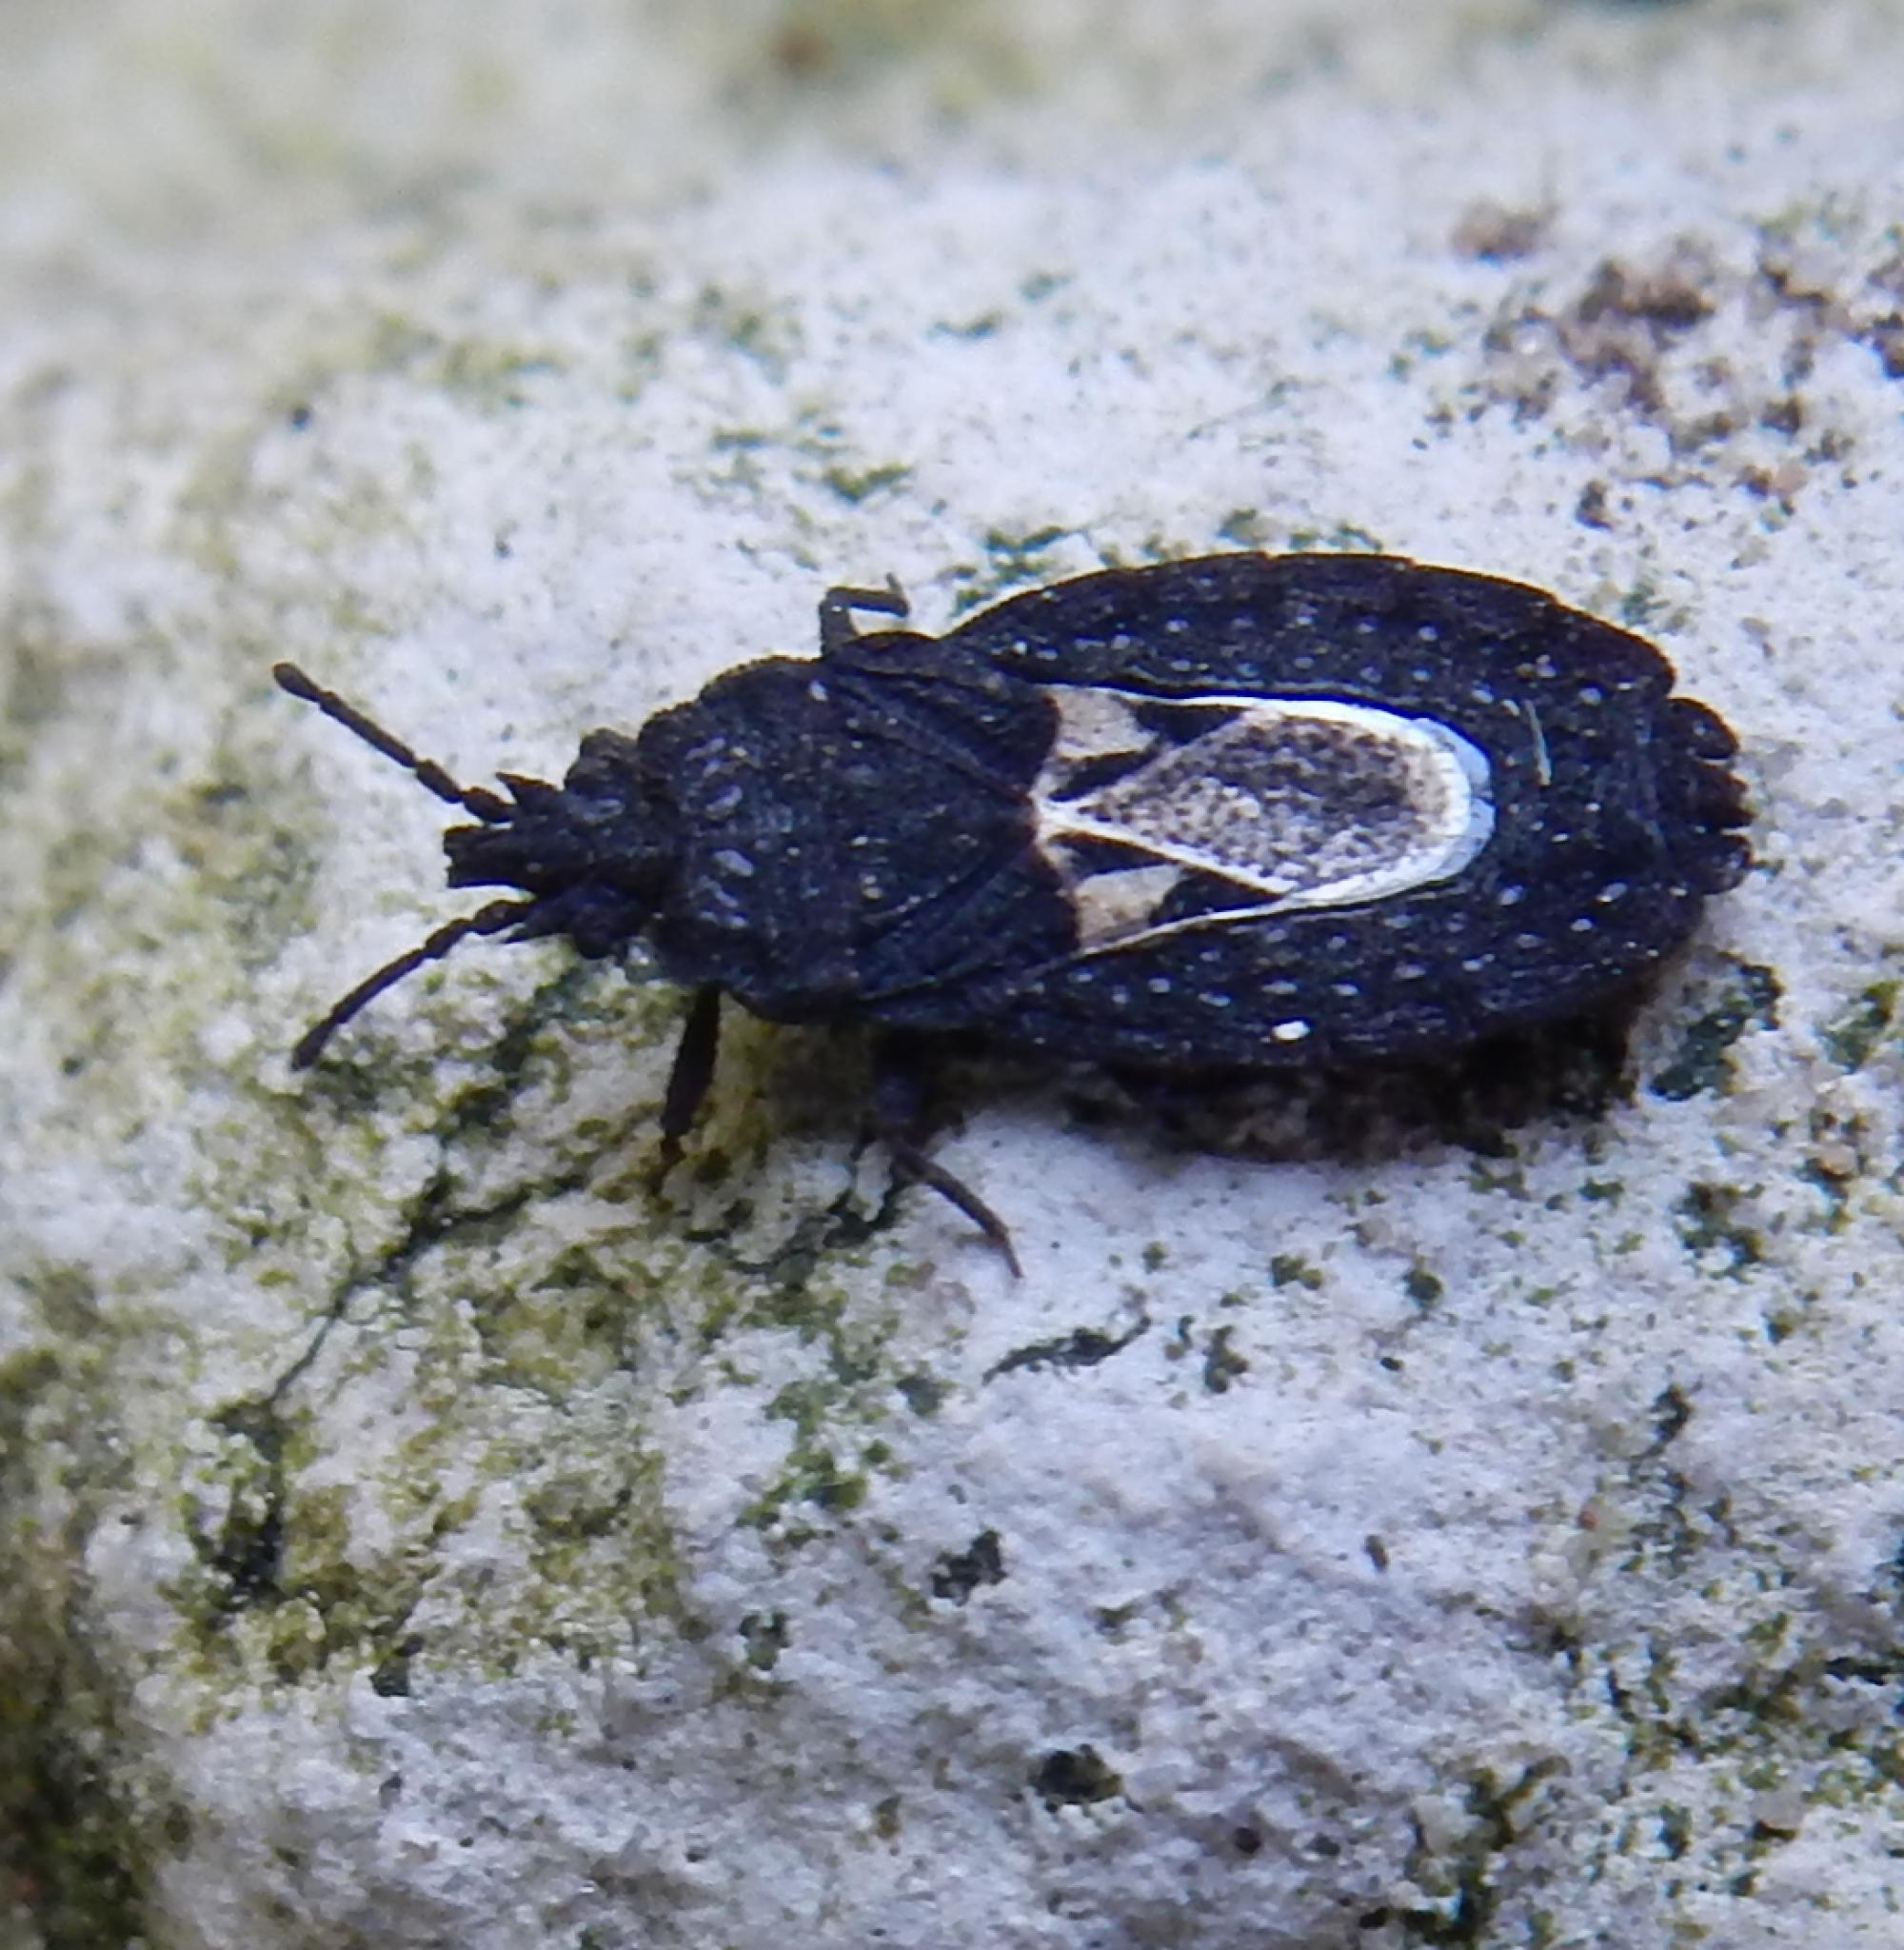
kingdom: Animalia
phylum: Arthropoda
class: Insecta
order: Hemiptera
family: Aradidae
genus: Brachyrhynchus
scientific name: Brachyrhynchus
